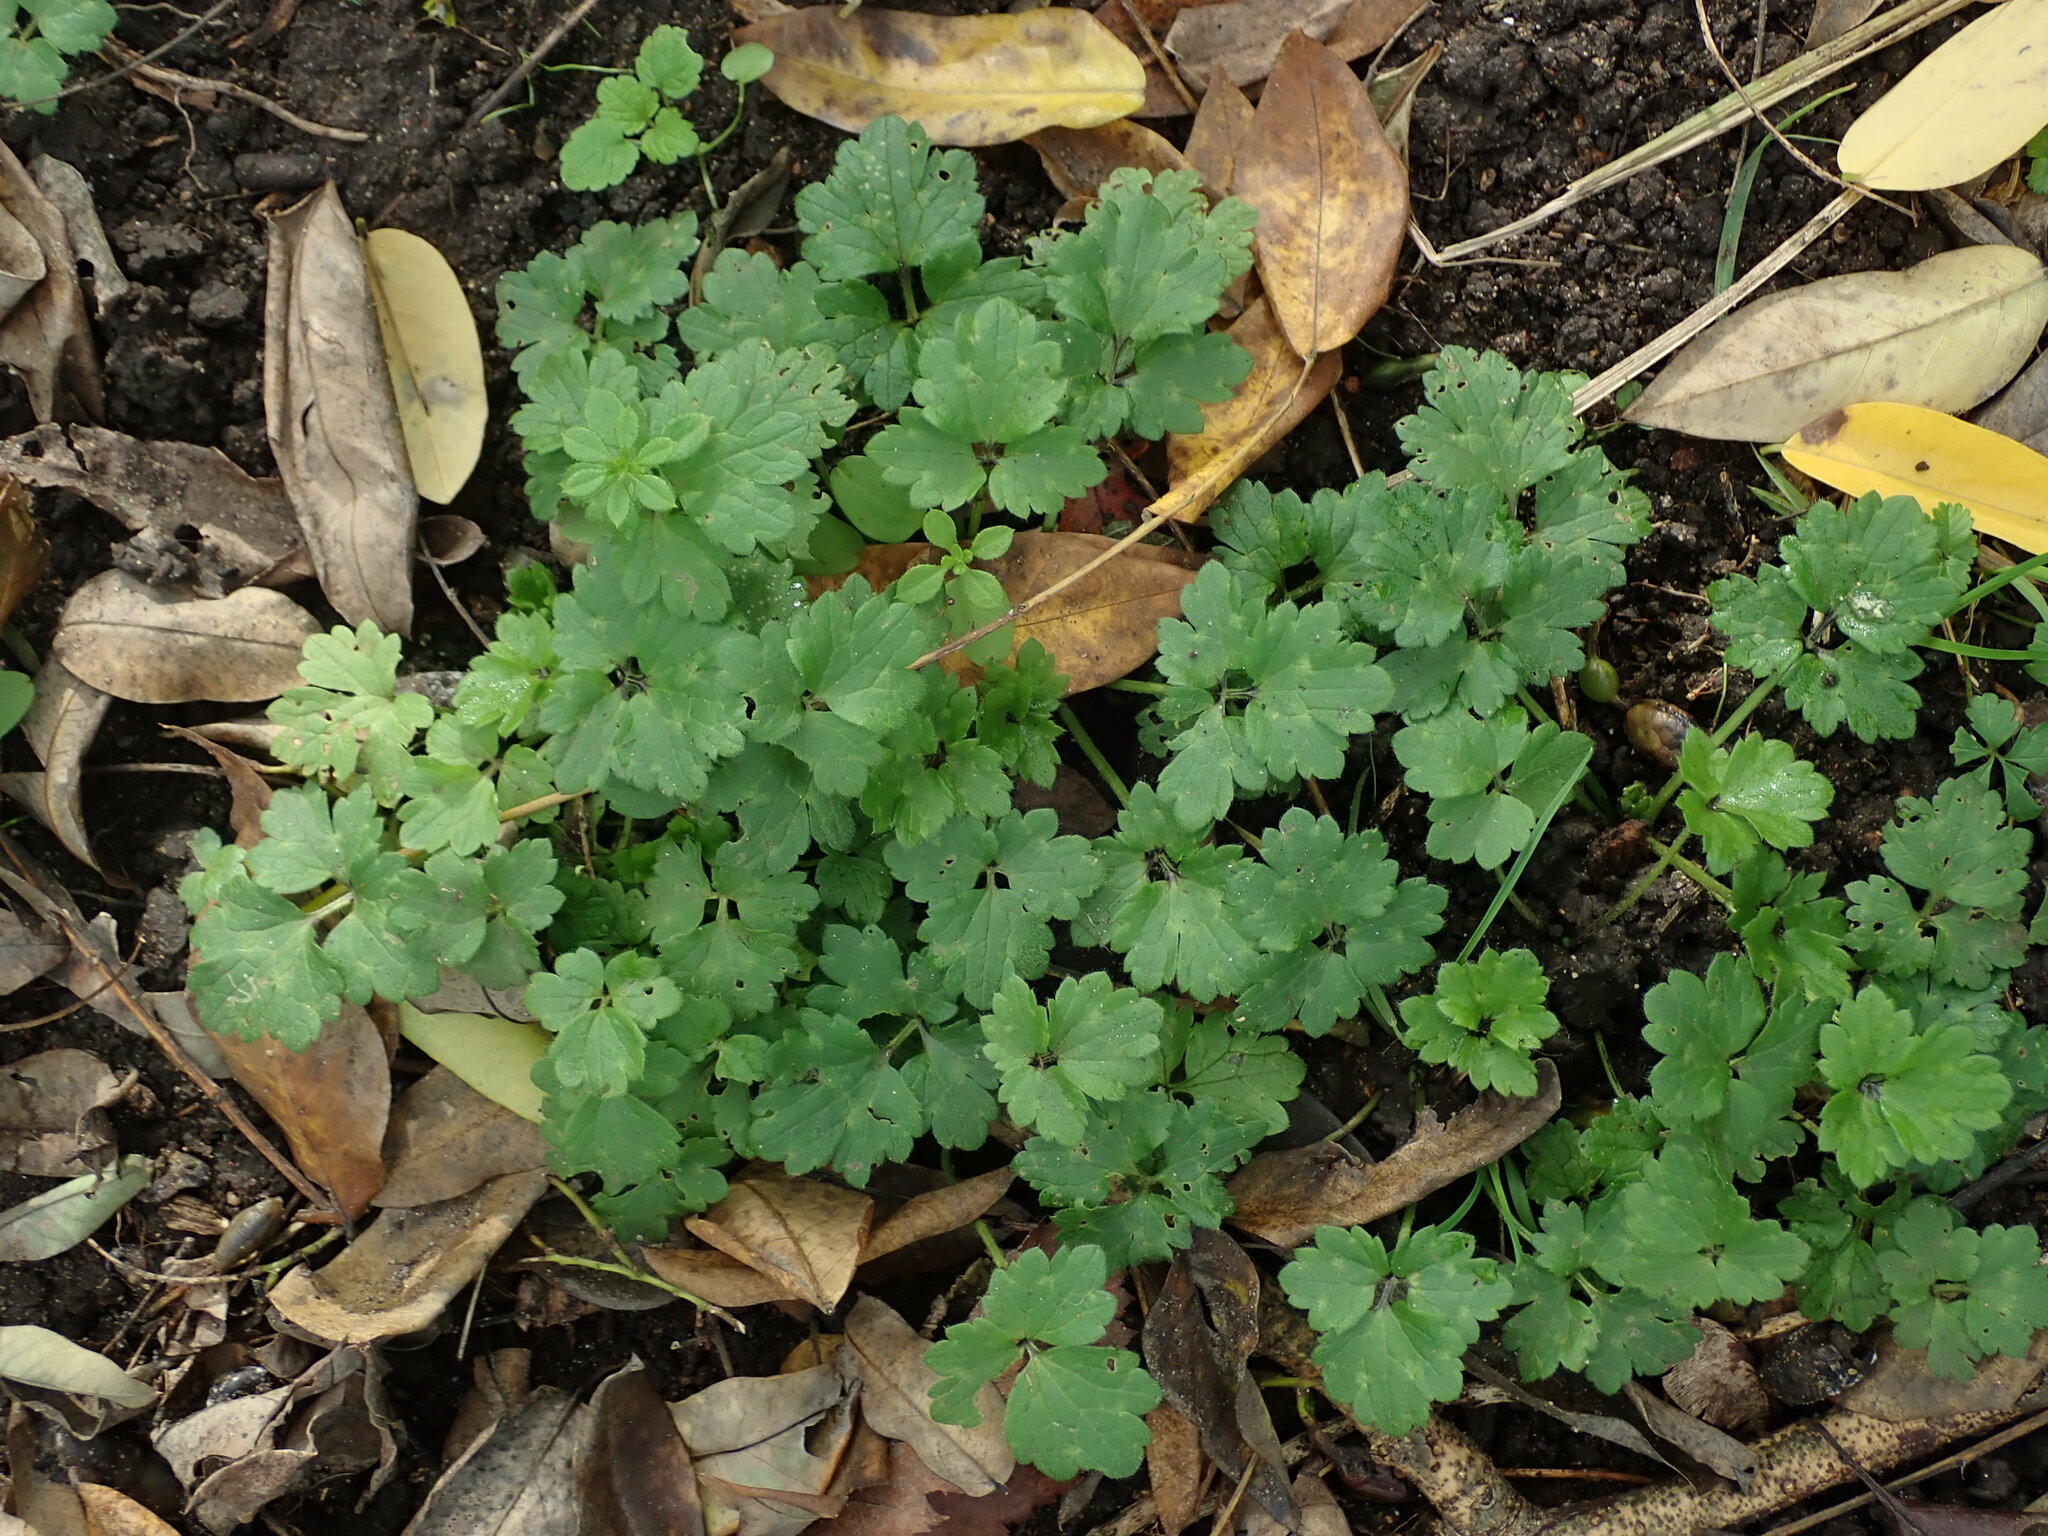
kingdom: Plantae
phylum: Tracheophyta
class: Magnoliopsida
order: Ranunculales
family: Ranunculaceae
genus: Ranunculus
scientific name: Ranunculus repens
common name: Creeping buttercup
